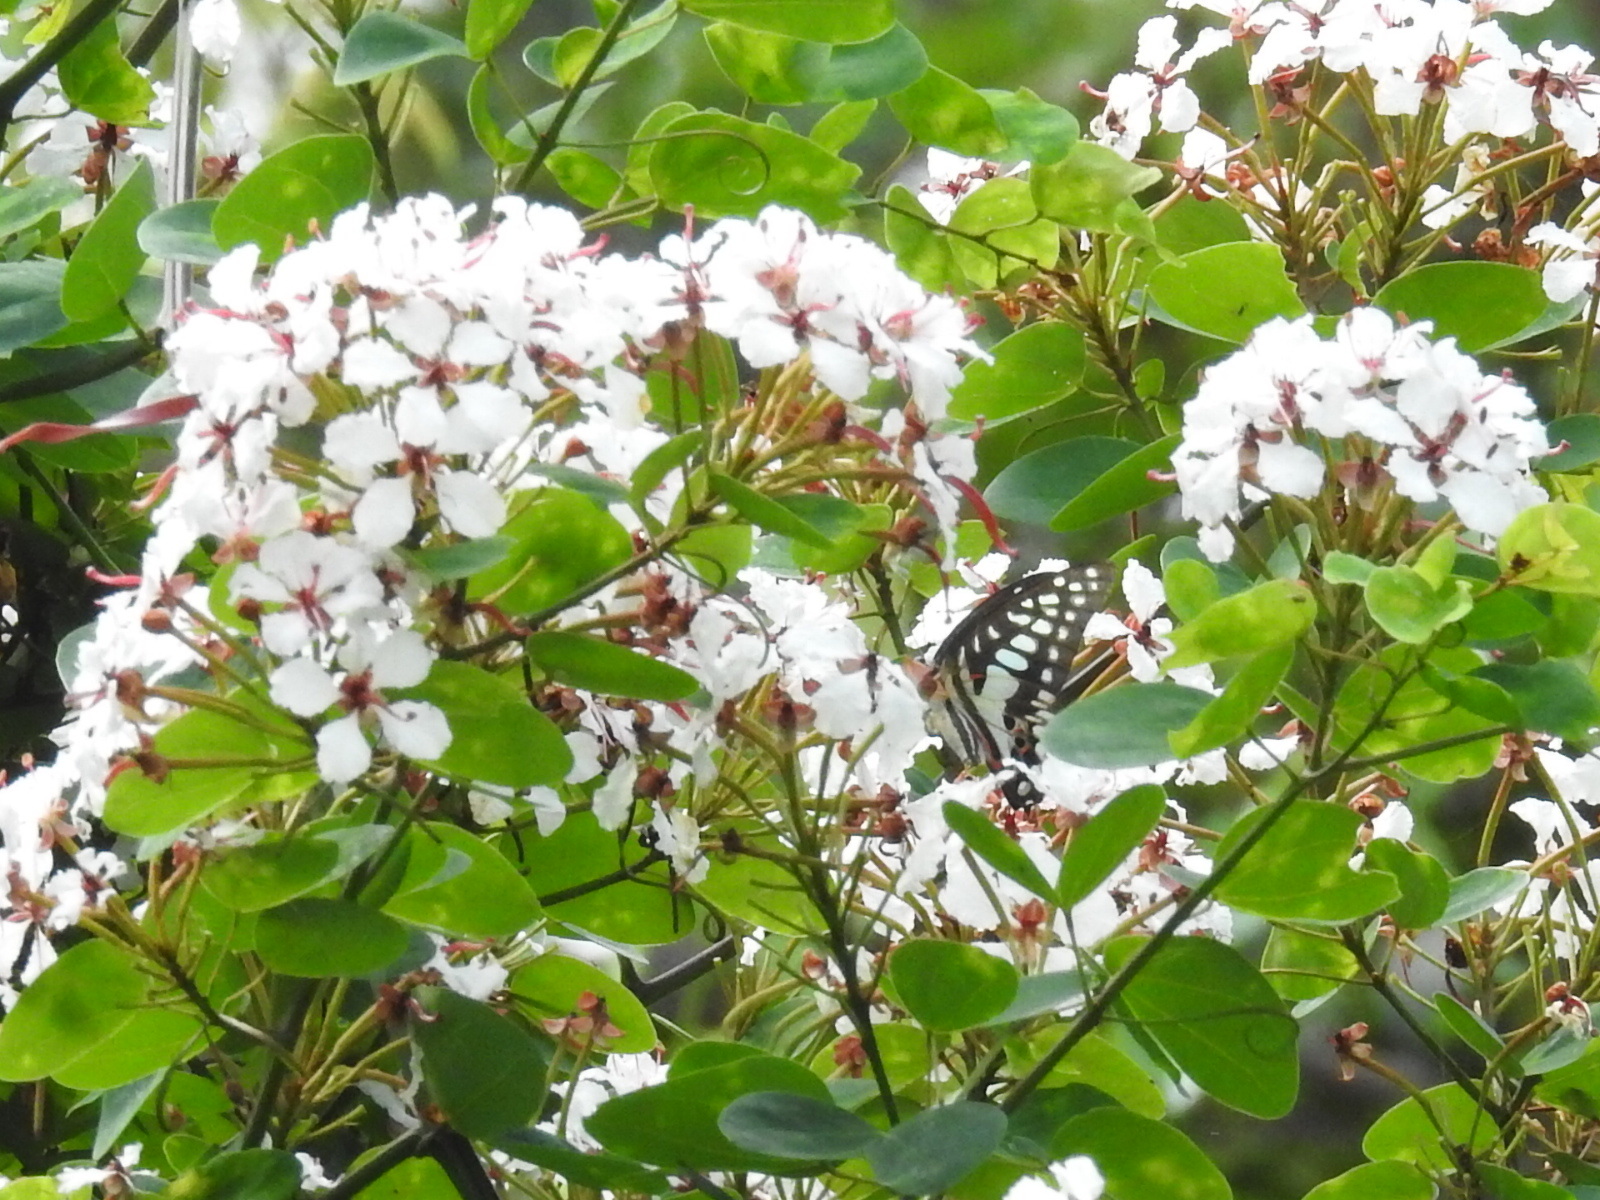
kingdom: Animalia
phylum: Arthropoda
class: Insecta
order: Lepidoptera
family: Papilionidae
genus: Graphium
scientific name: Graphium doson
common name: Common jay
